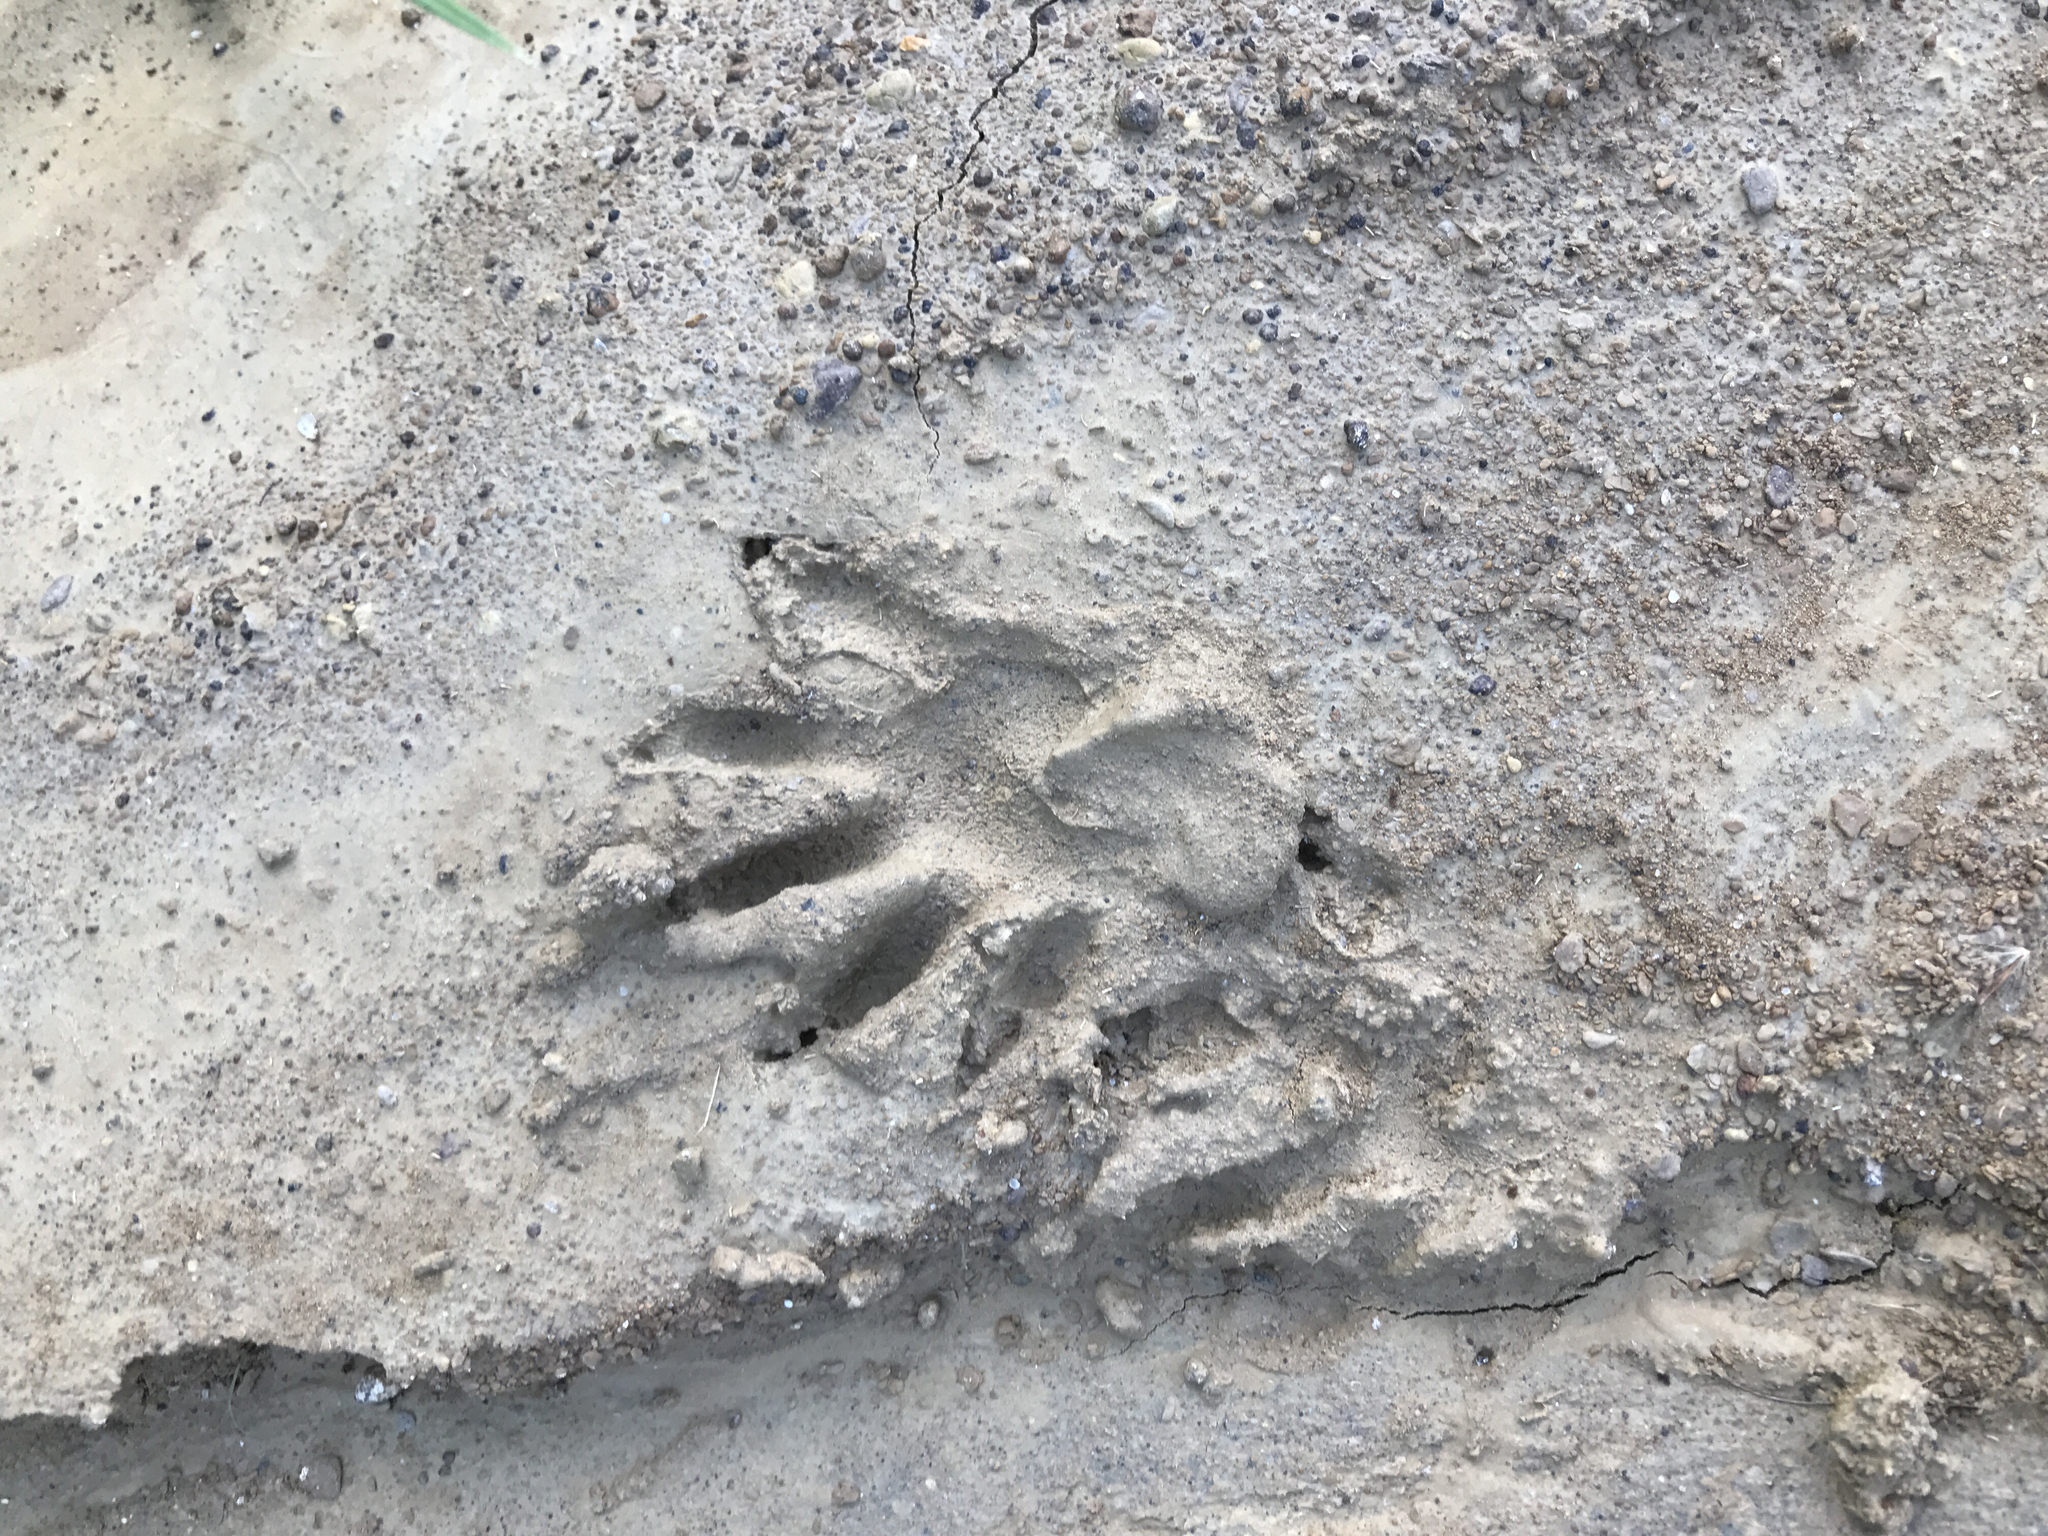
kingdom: Animalia
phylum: Chordata
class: Mammalia
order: Carnivora
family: Procyonidae
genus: Procyon
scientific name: Procyon lotor
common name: Raccoon
